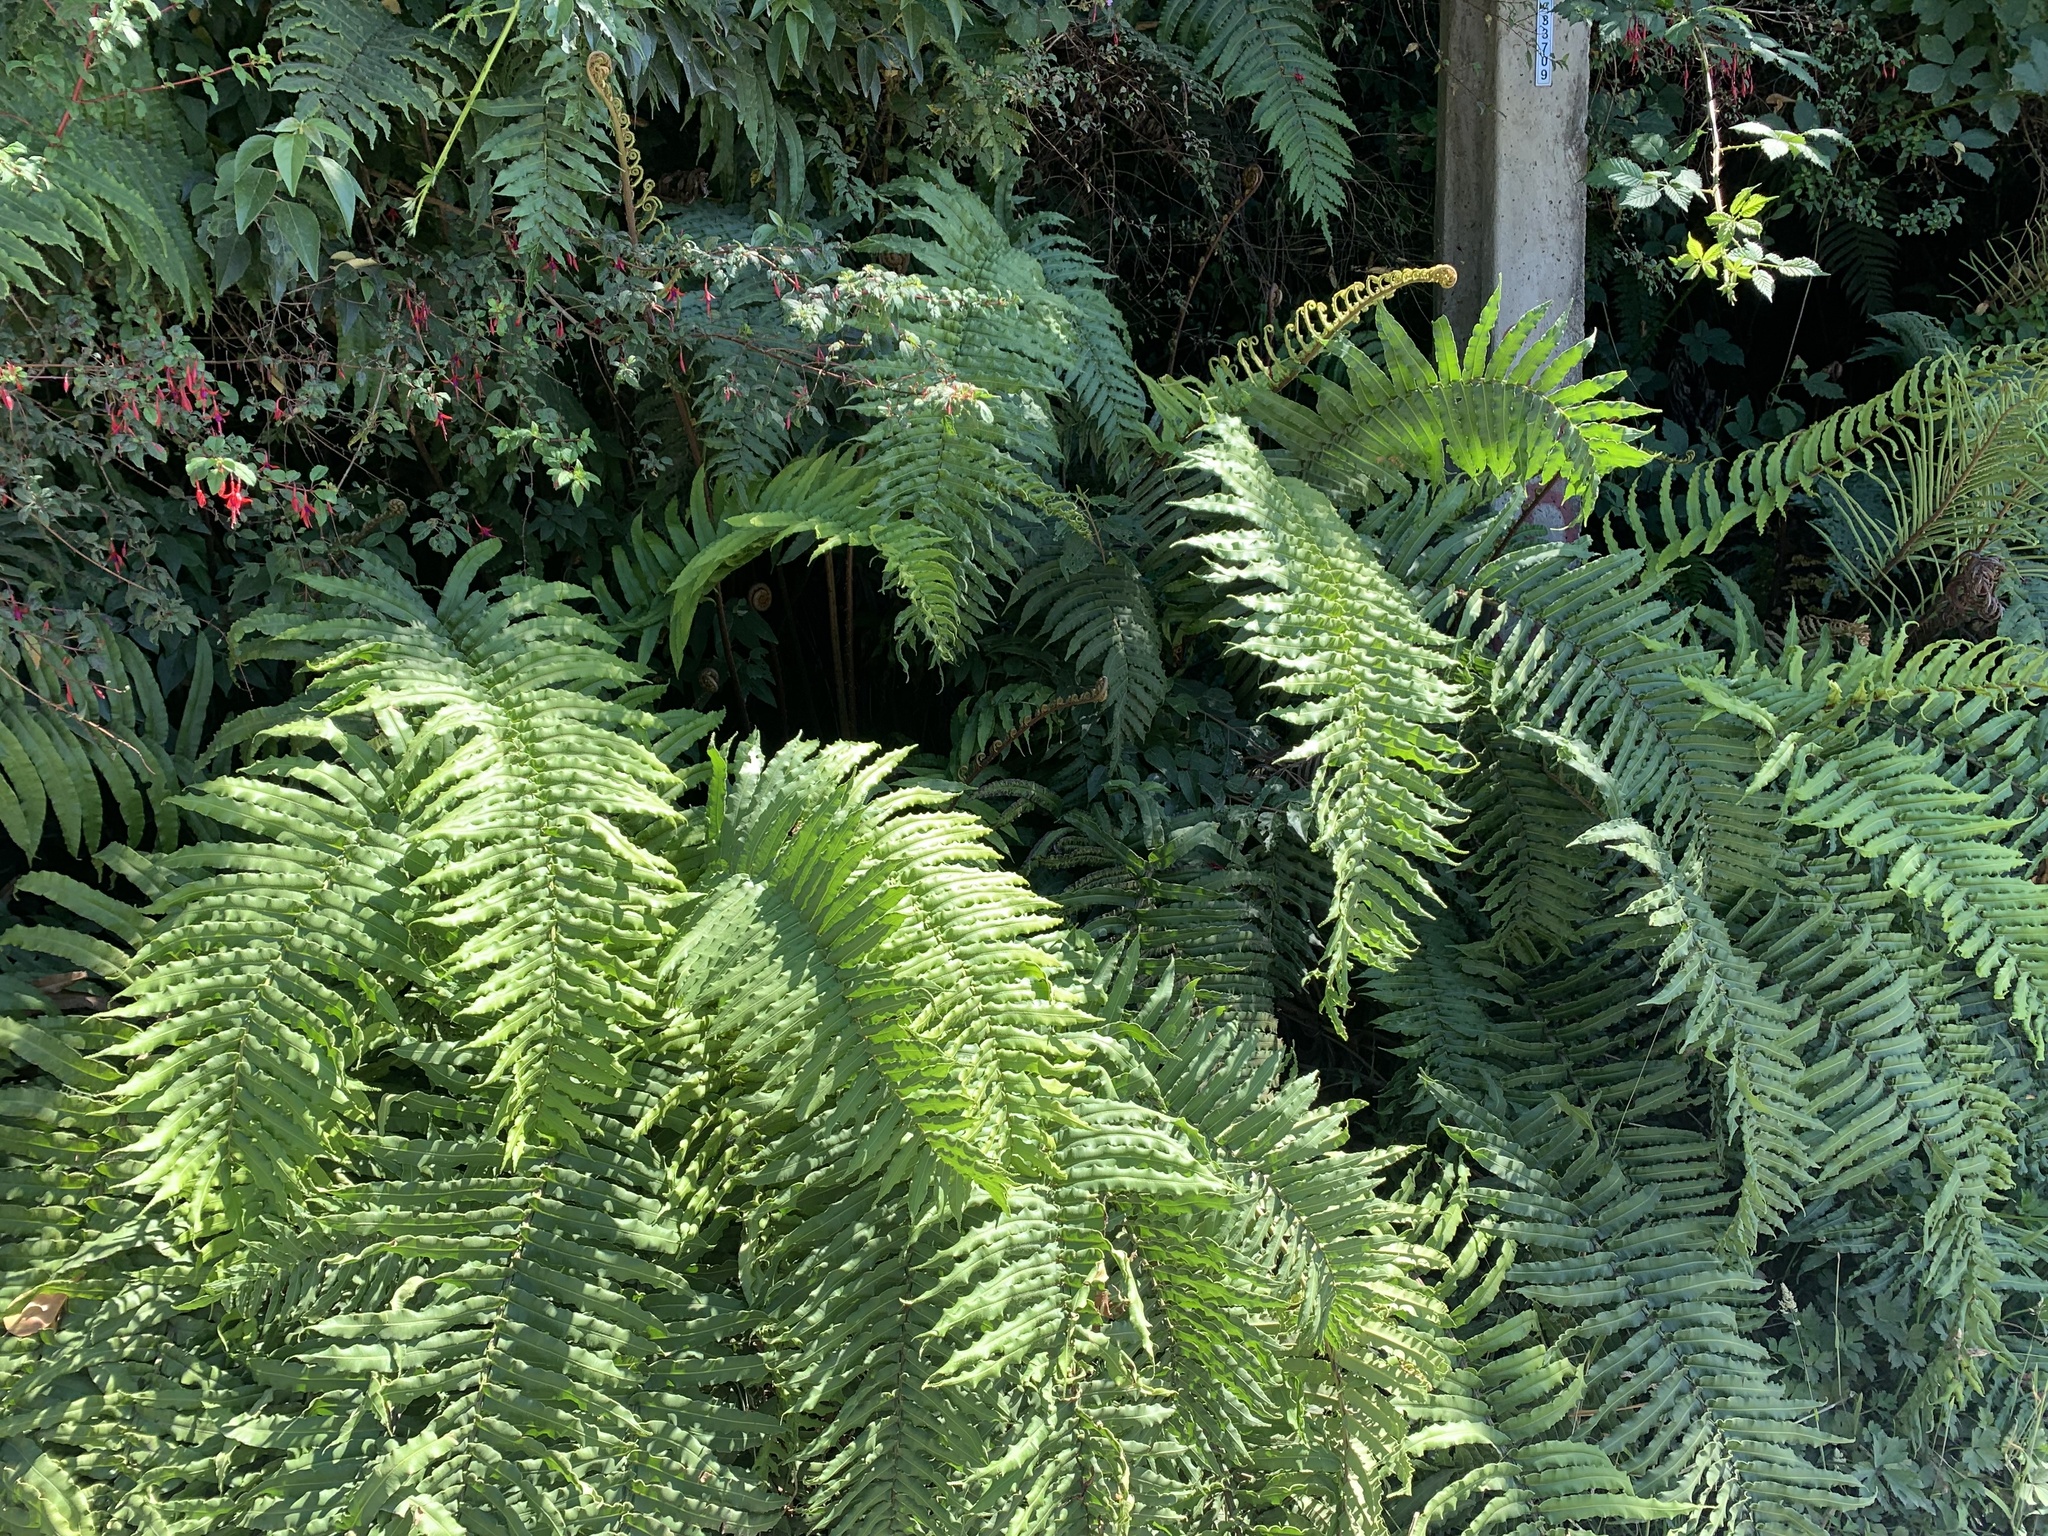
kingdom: Plantae
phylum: Tracheophyta
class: Polypodiopsida
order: Polypodiales
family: Blechnaceae
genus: Parablechnum
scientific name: Parablechnum chilense
